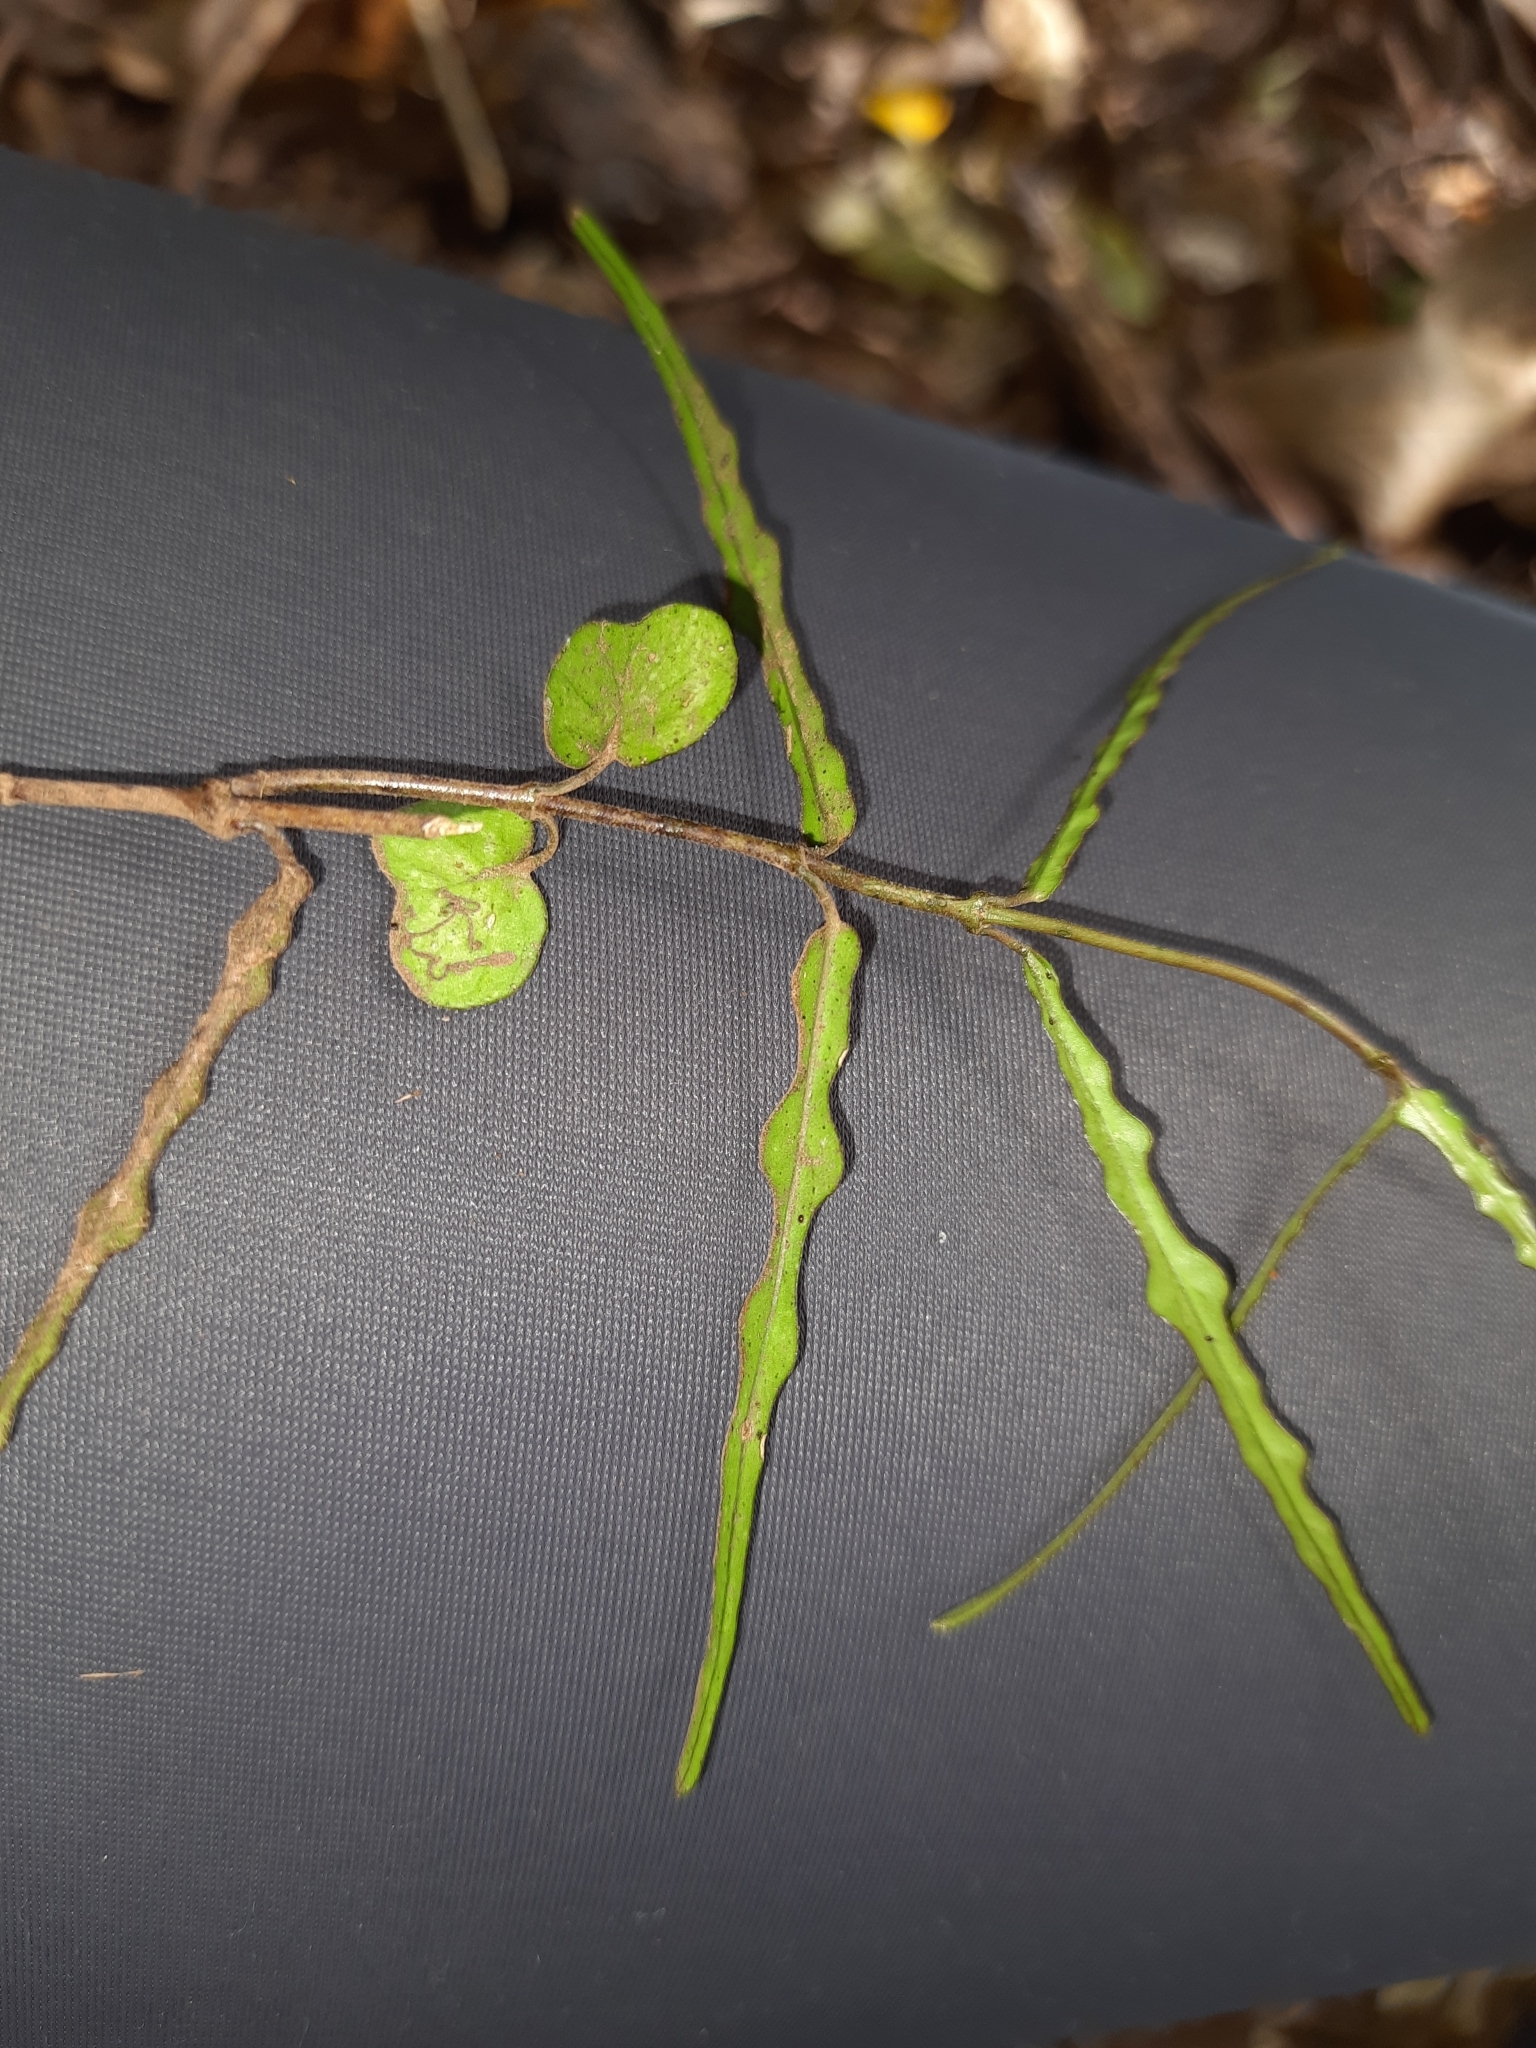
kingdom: Plantae
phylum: Tracheophyta
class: Magnoliopsida
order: Gentianales
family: Apocynaceae
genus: Parsonsia
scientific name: Parsonsia heterophylla
